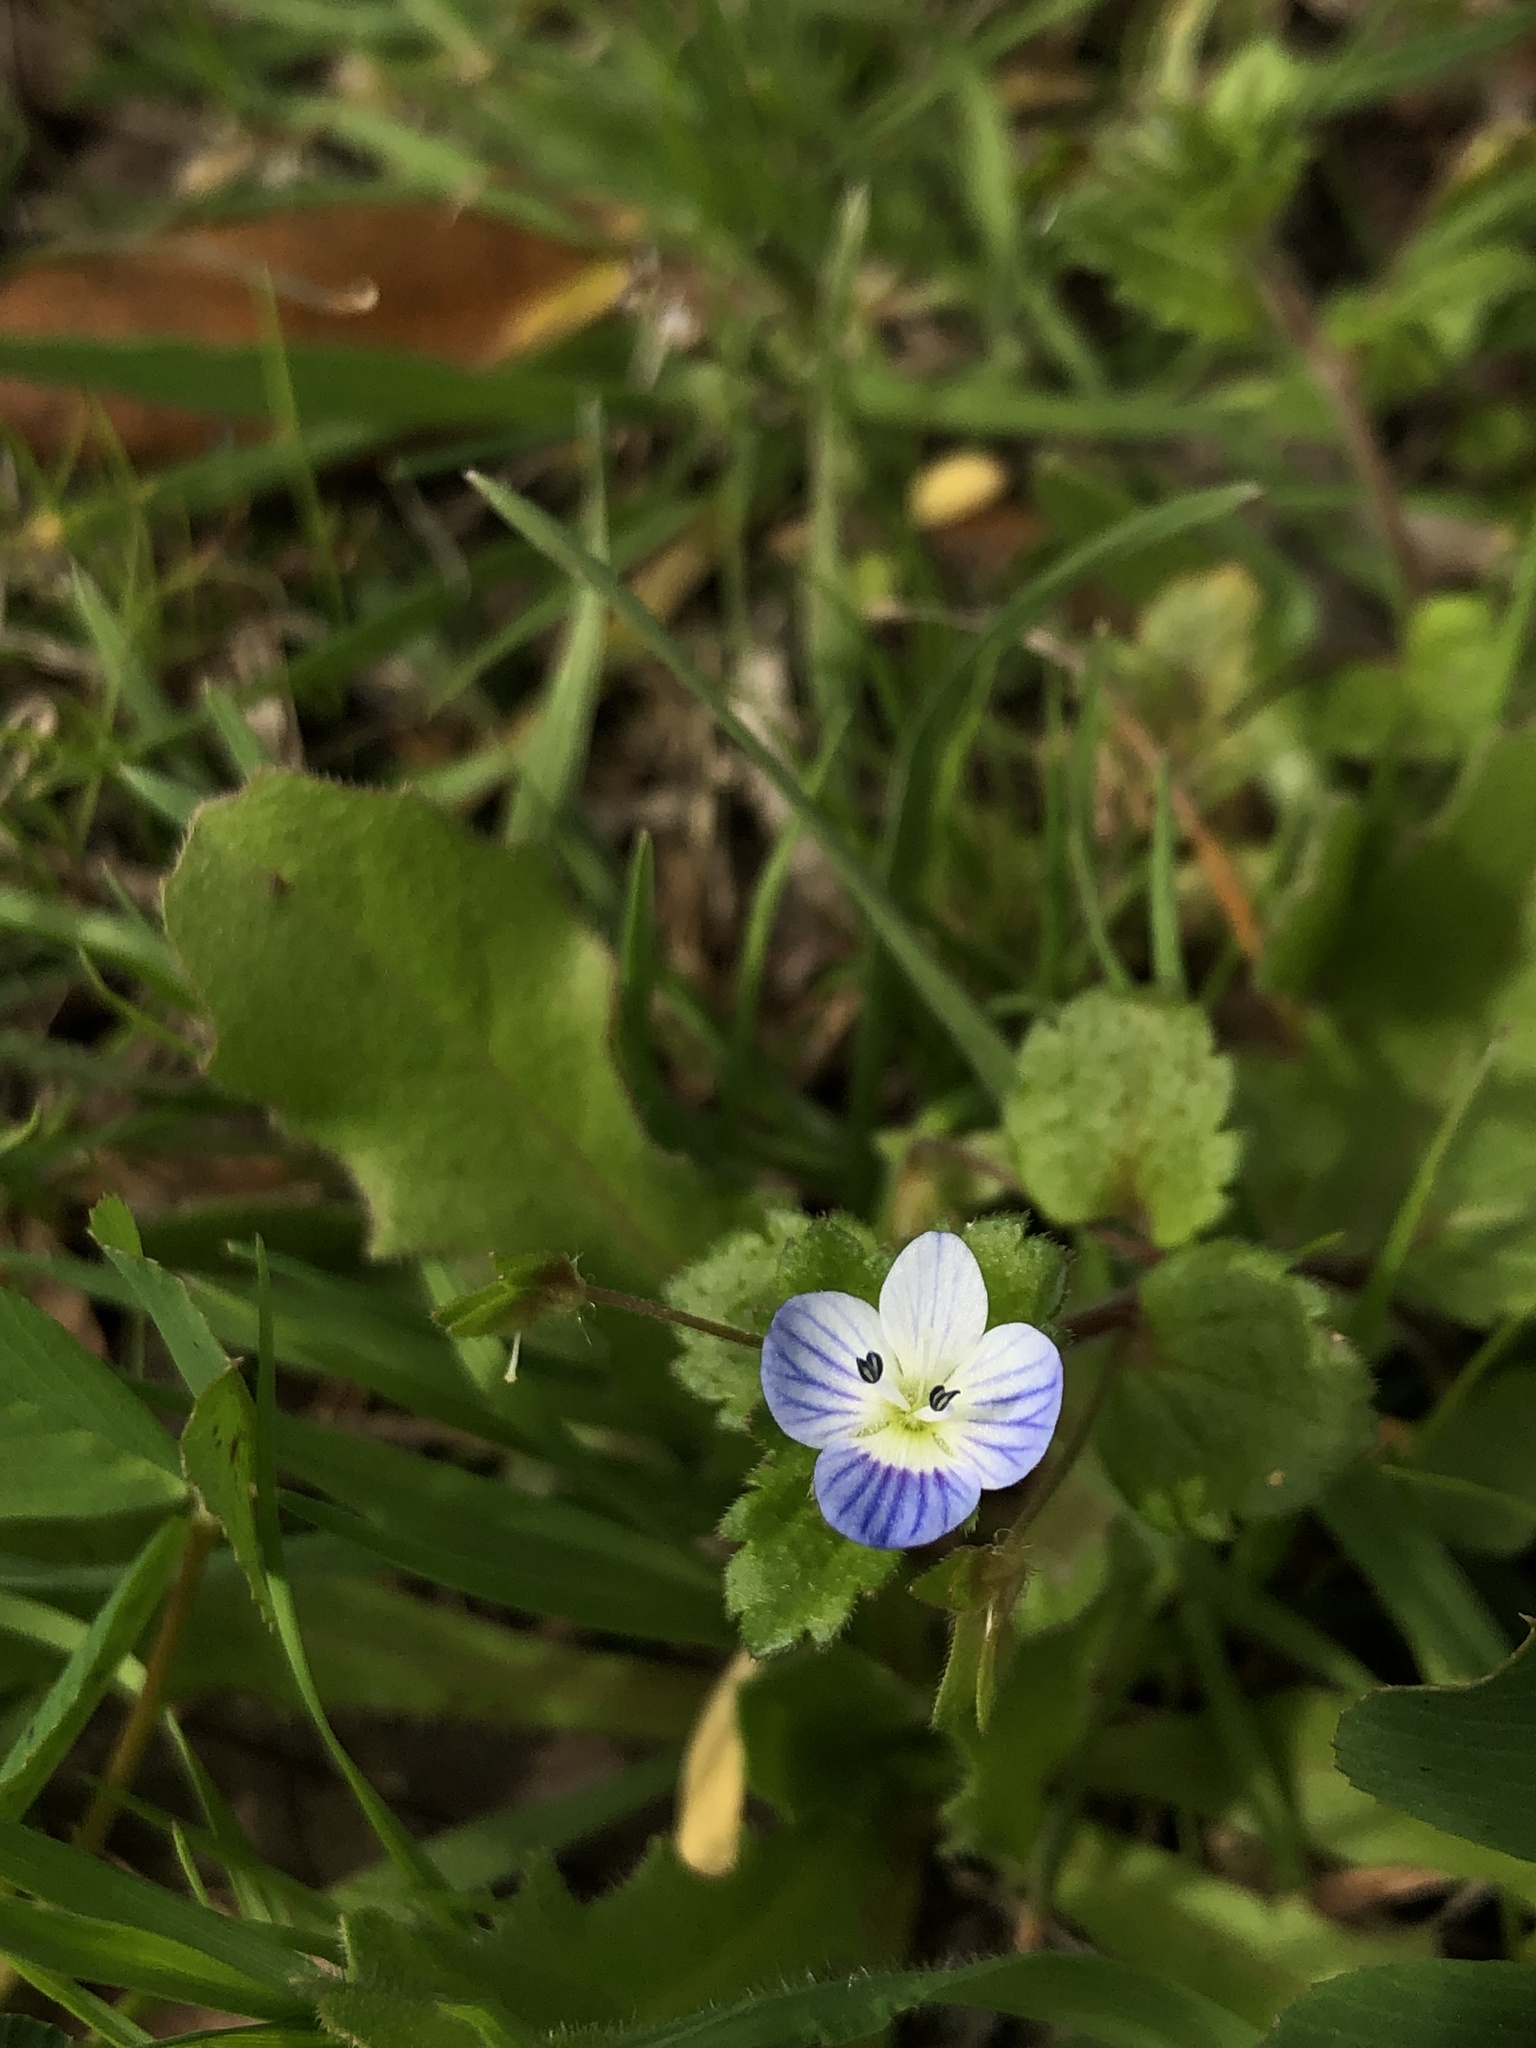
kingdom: Plantae
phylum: Tracheophyta
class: Magnoliopsida
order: Lamiales
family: Plantaginaceae
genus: Veronica
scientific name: Veronica persica
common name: Common field-speedwell
